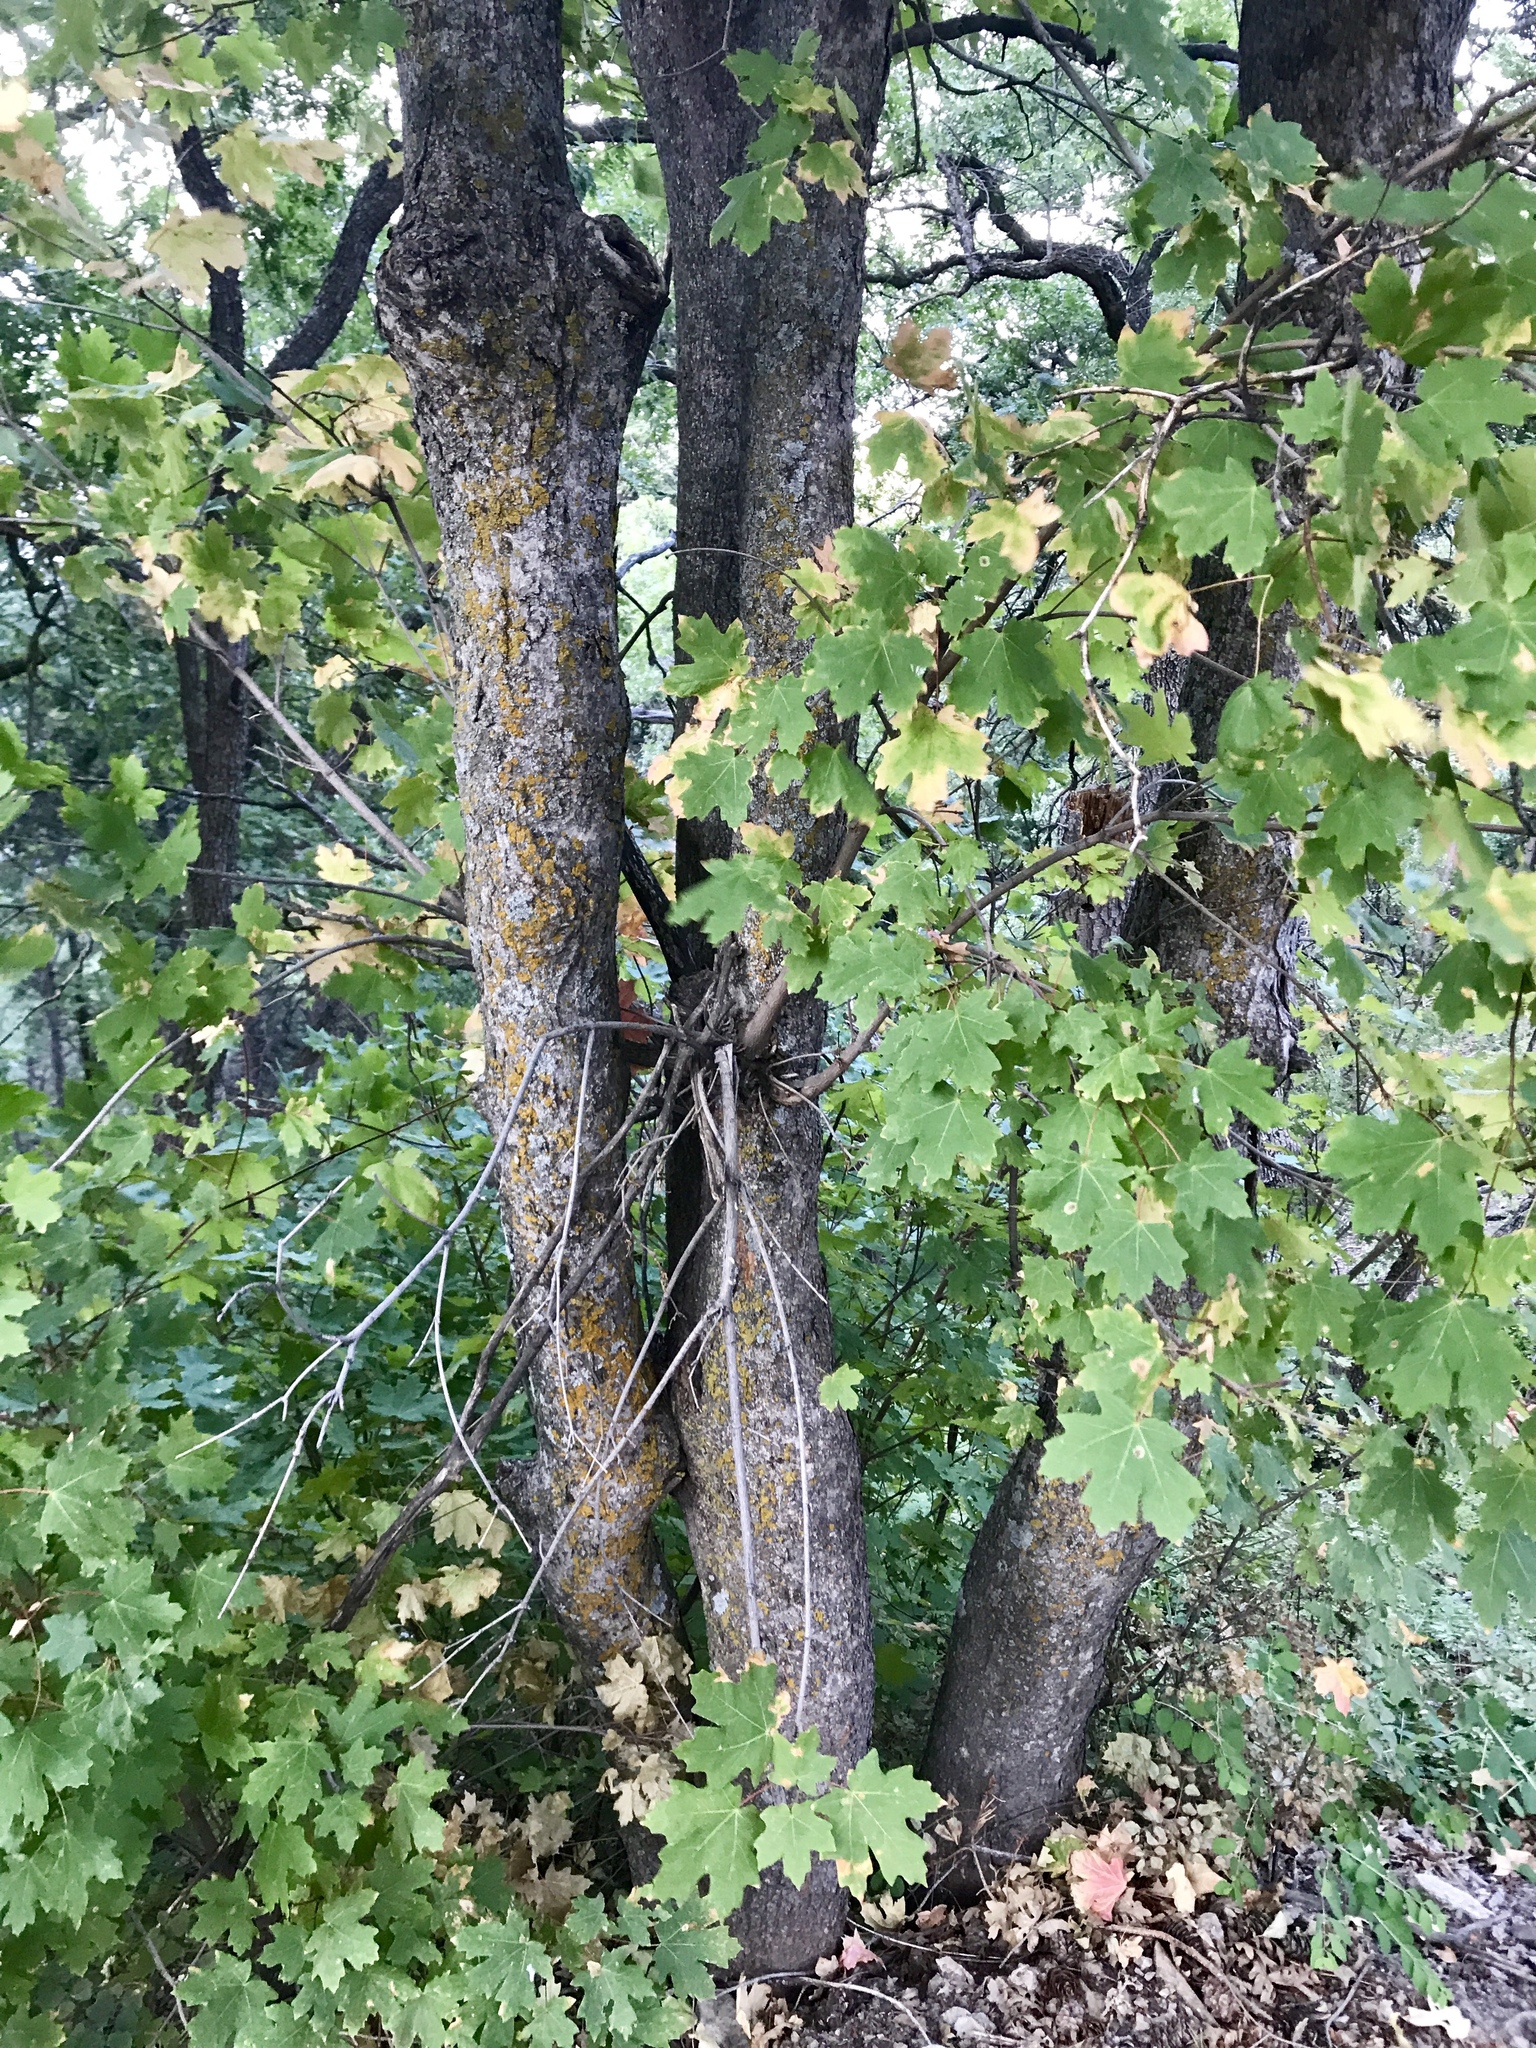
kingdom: Plantae
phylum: Tracheophyta
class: Magnoliopsida
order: Sapindales
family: Sapindaceae
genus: Acer
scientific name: Acer grandidentatum
